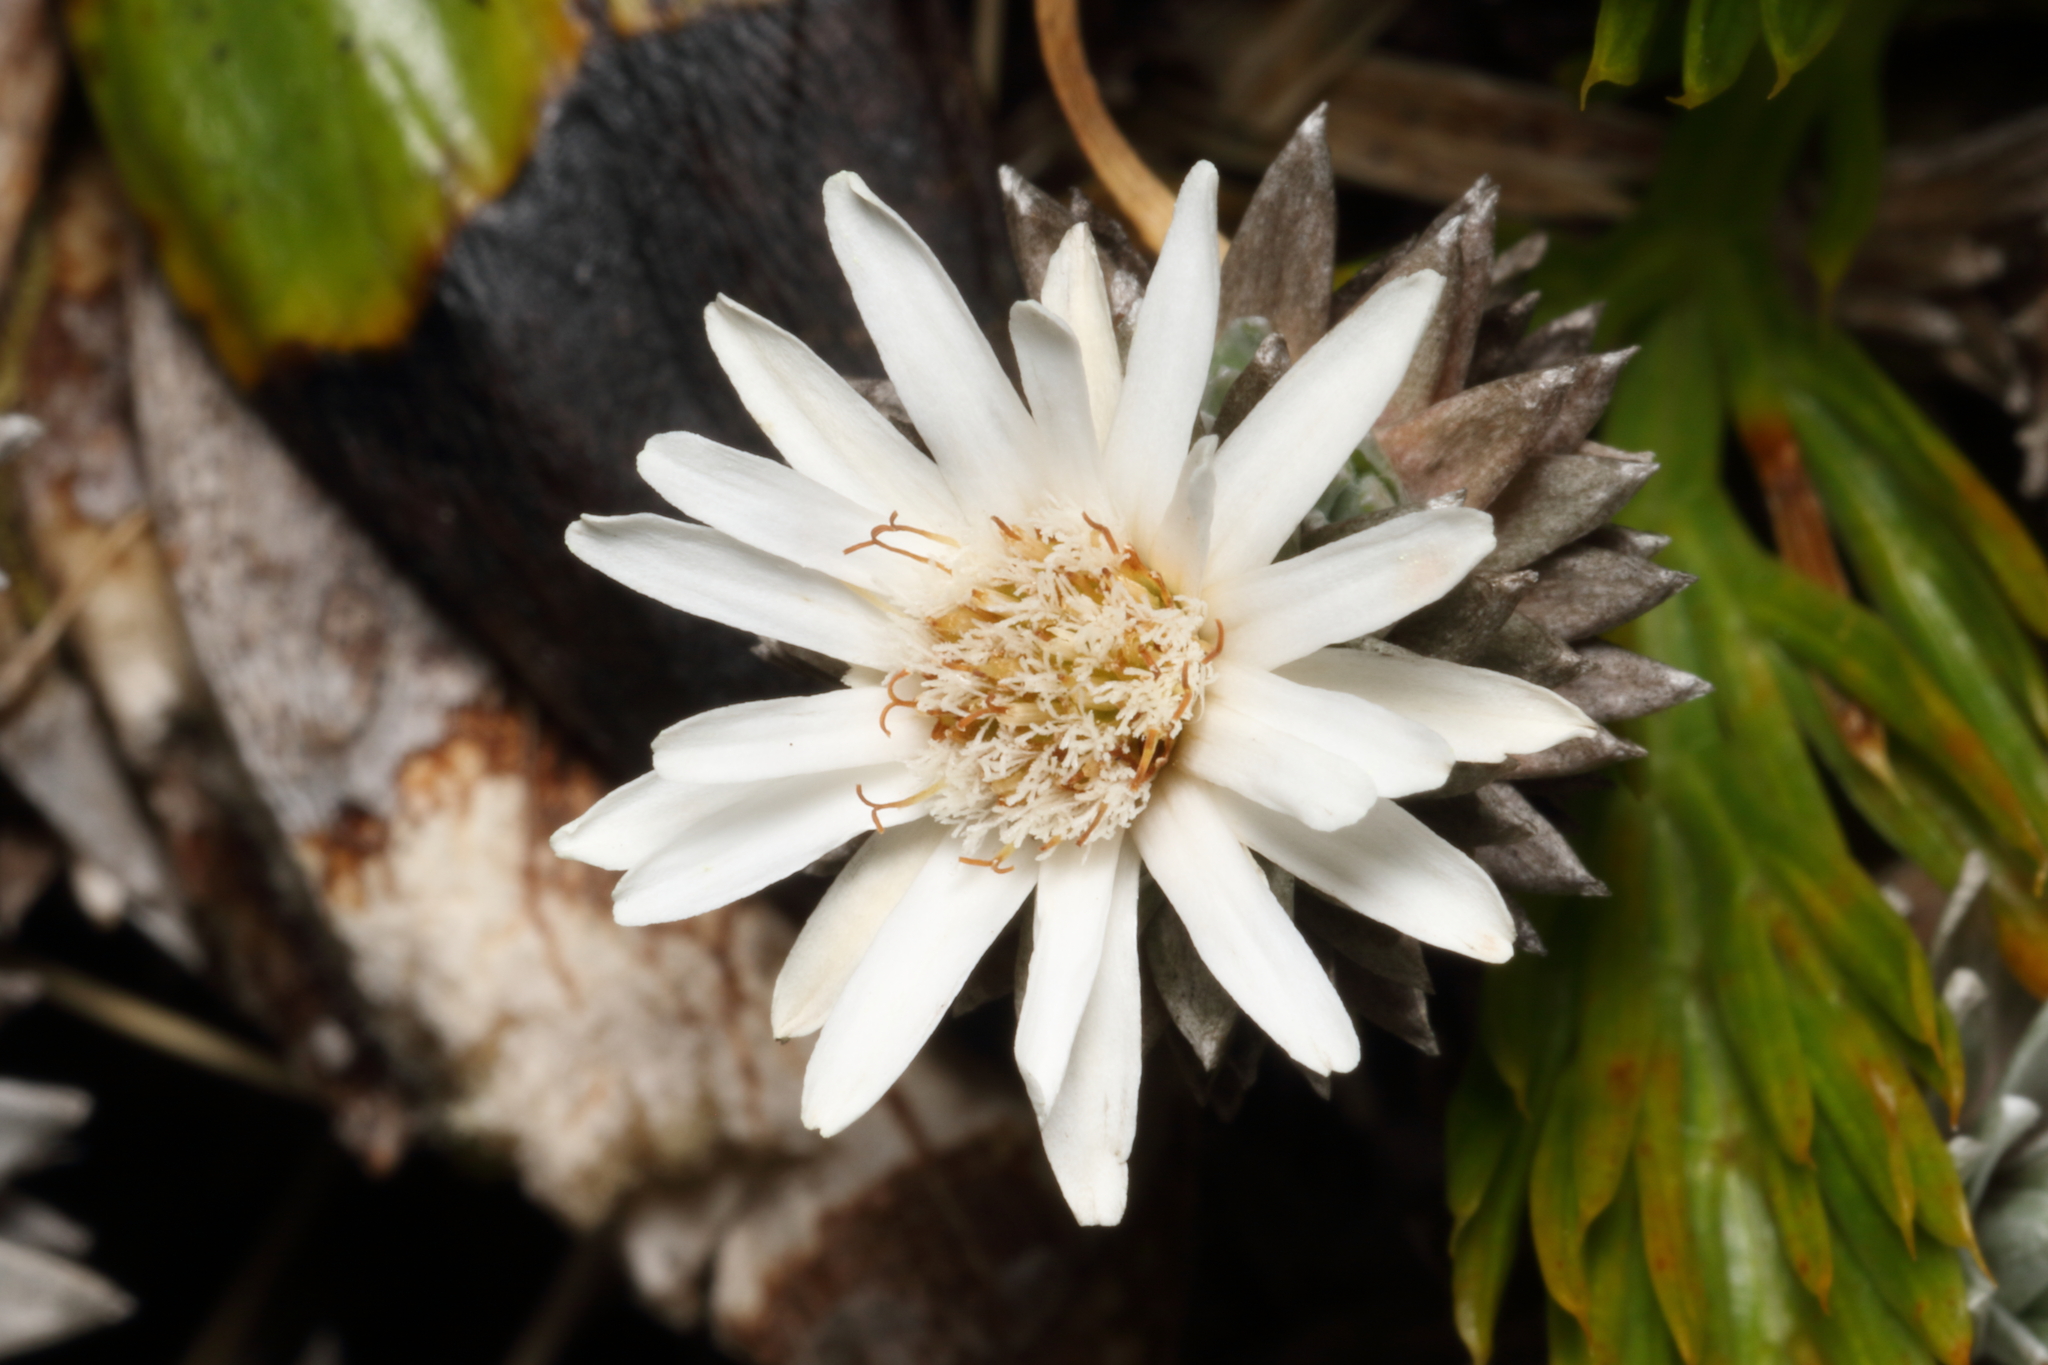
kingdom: Plantae
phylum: Tracheophyta
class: Magnoliopsida
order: Asterales
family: Asteraceae
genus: Raoulia
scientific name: Raoulia grandiflora
